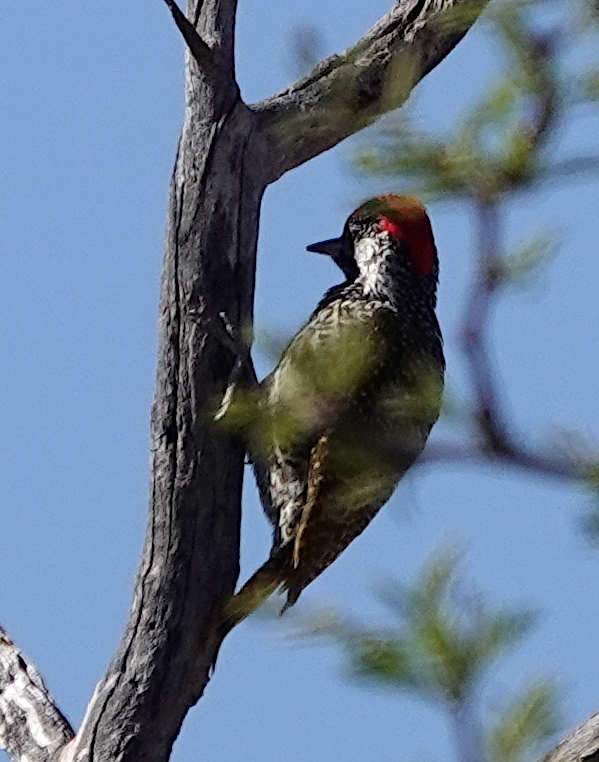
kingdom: Animalia
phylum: Chordata
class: Aves
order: Piciformes
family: Picidae
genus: Campethera
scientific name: Campethera abingoni
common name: Golden-tailed woodpecker
